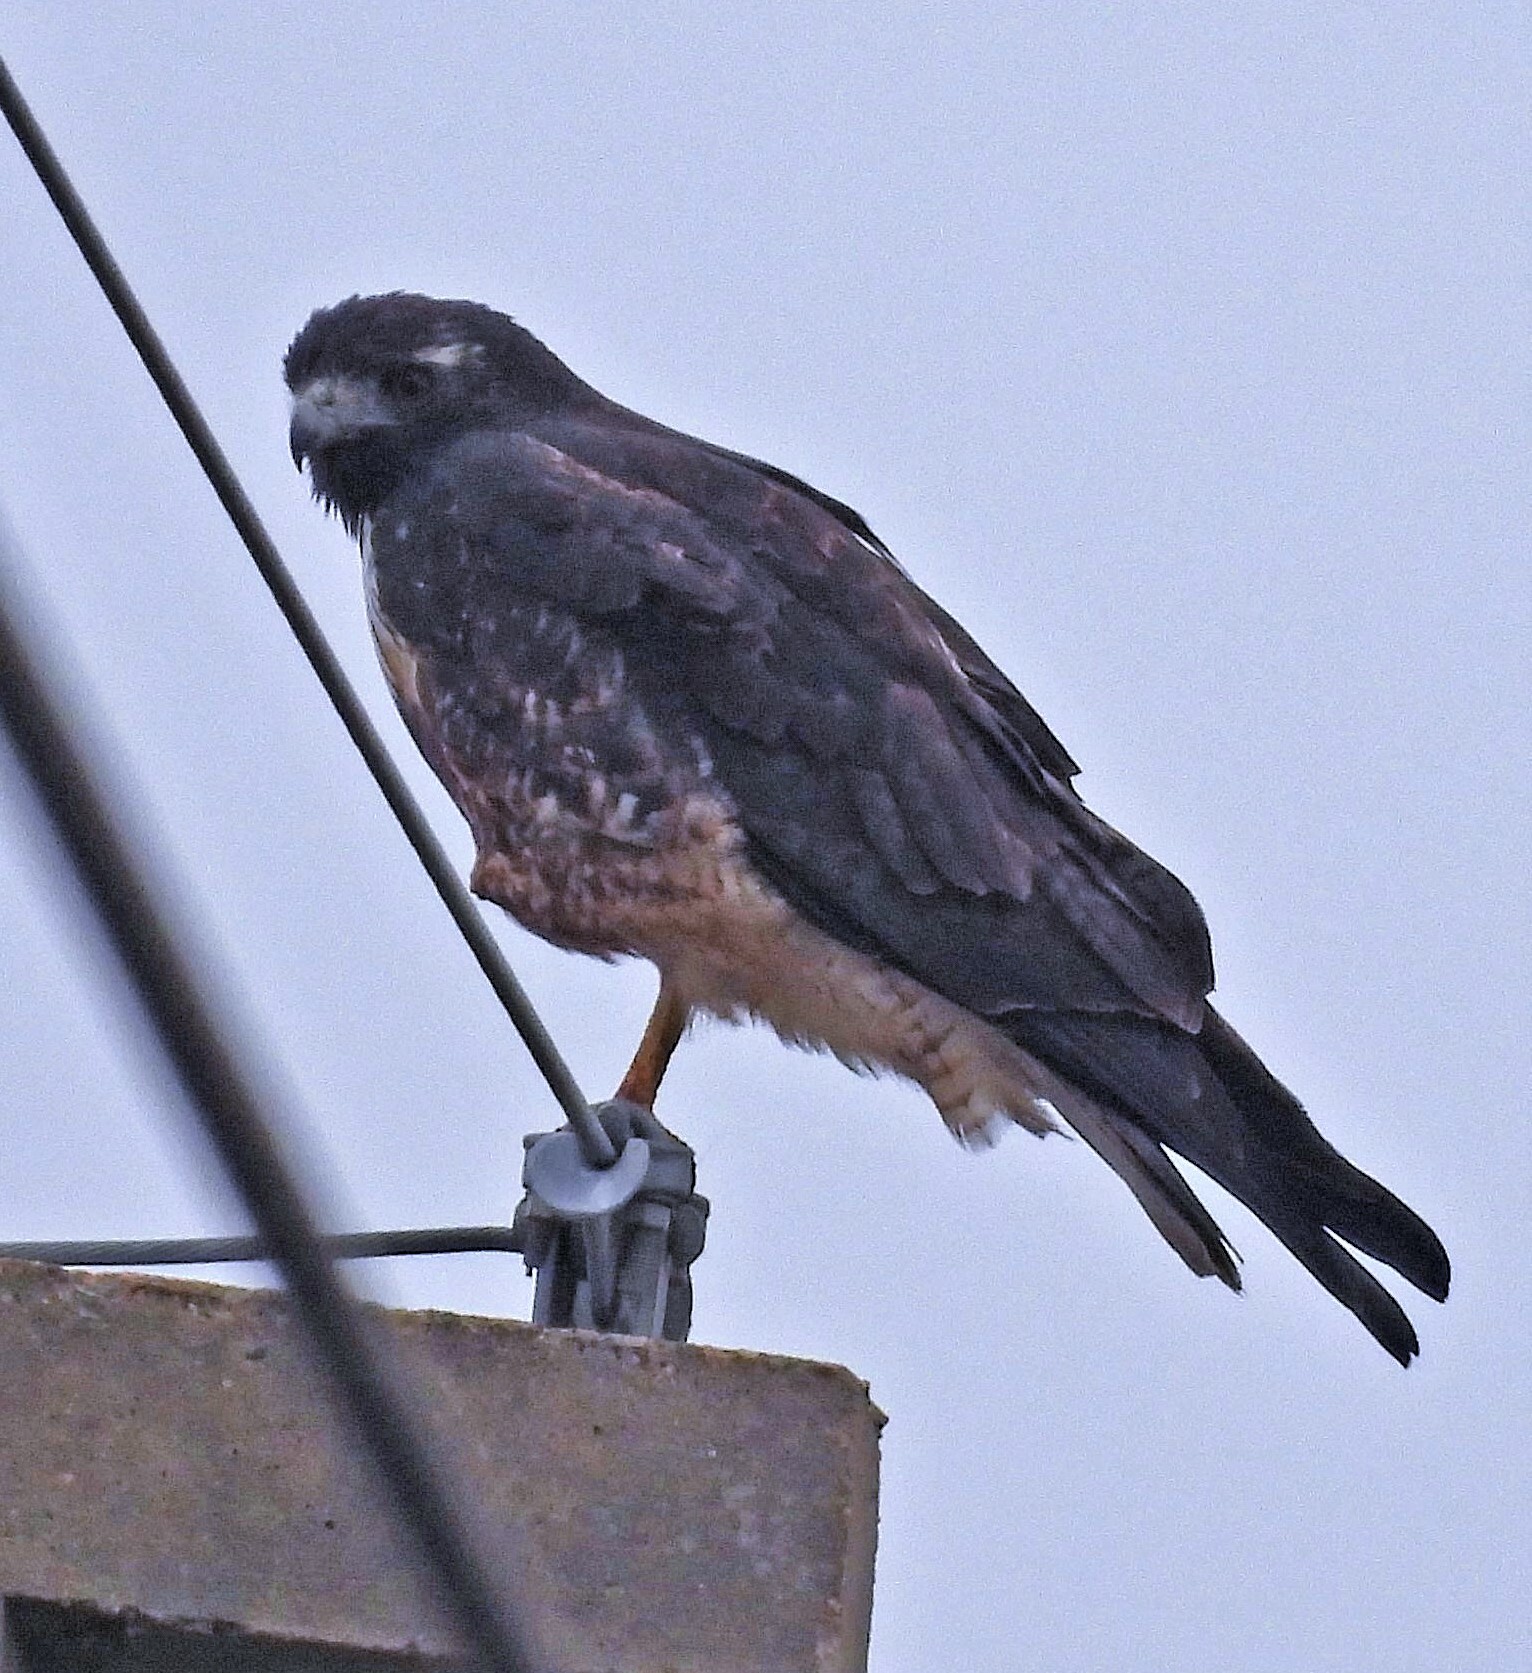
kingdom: Animalia
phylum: Chordata
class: Aves
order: Accipitriformes
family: Accipitridae
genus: Buteo
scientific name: Buteo albicaudatus
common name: White-tailed hawk
